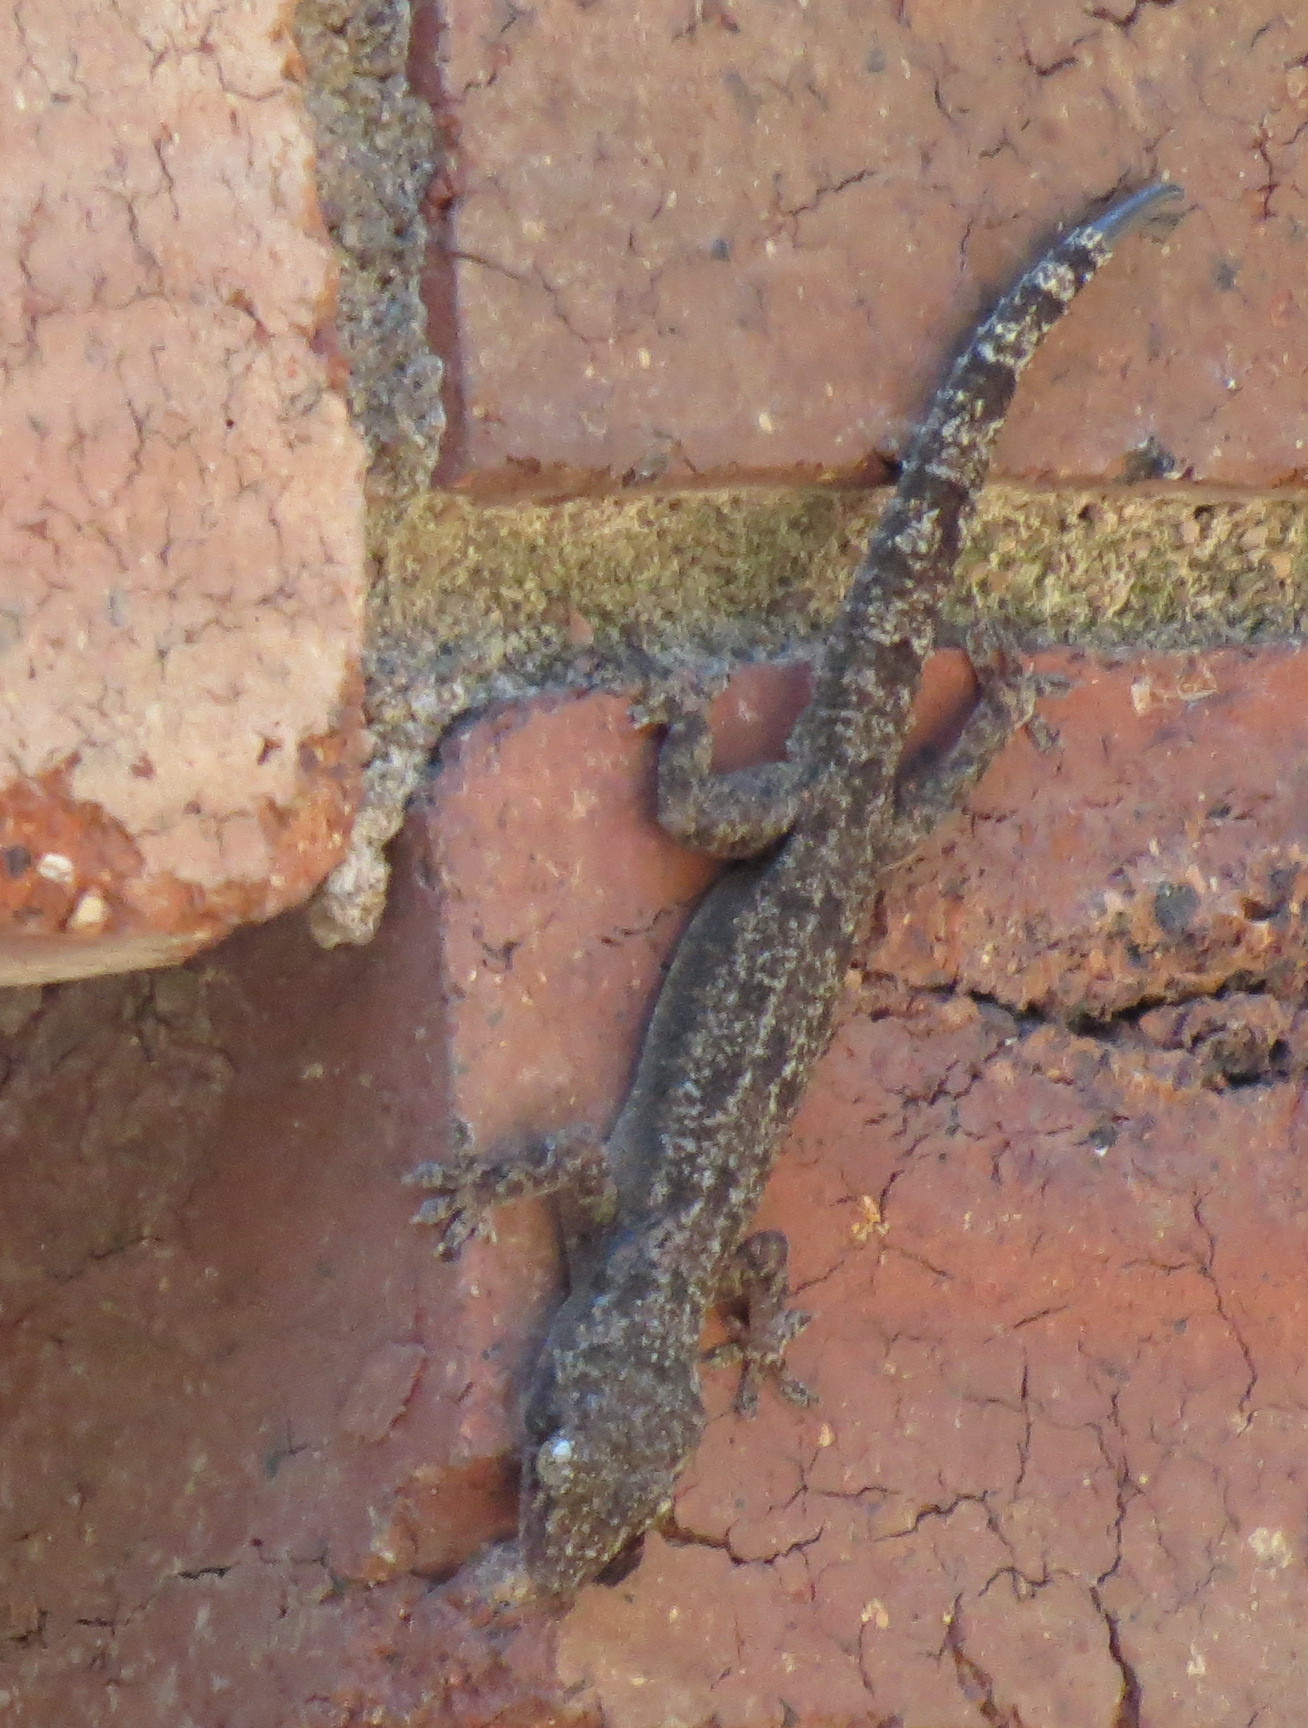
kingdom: Animalia
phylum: Chordata
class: Squamata
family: Gekkonidae
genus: Hemidactylus
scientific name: Hemidactylus mabouia
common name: House gecko
